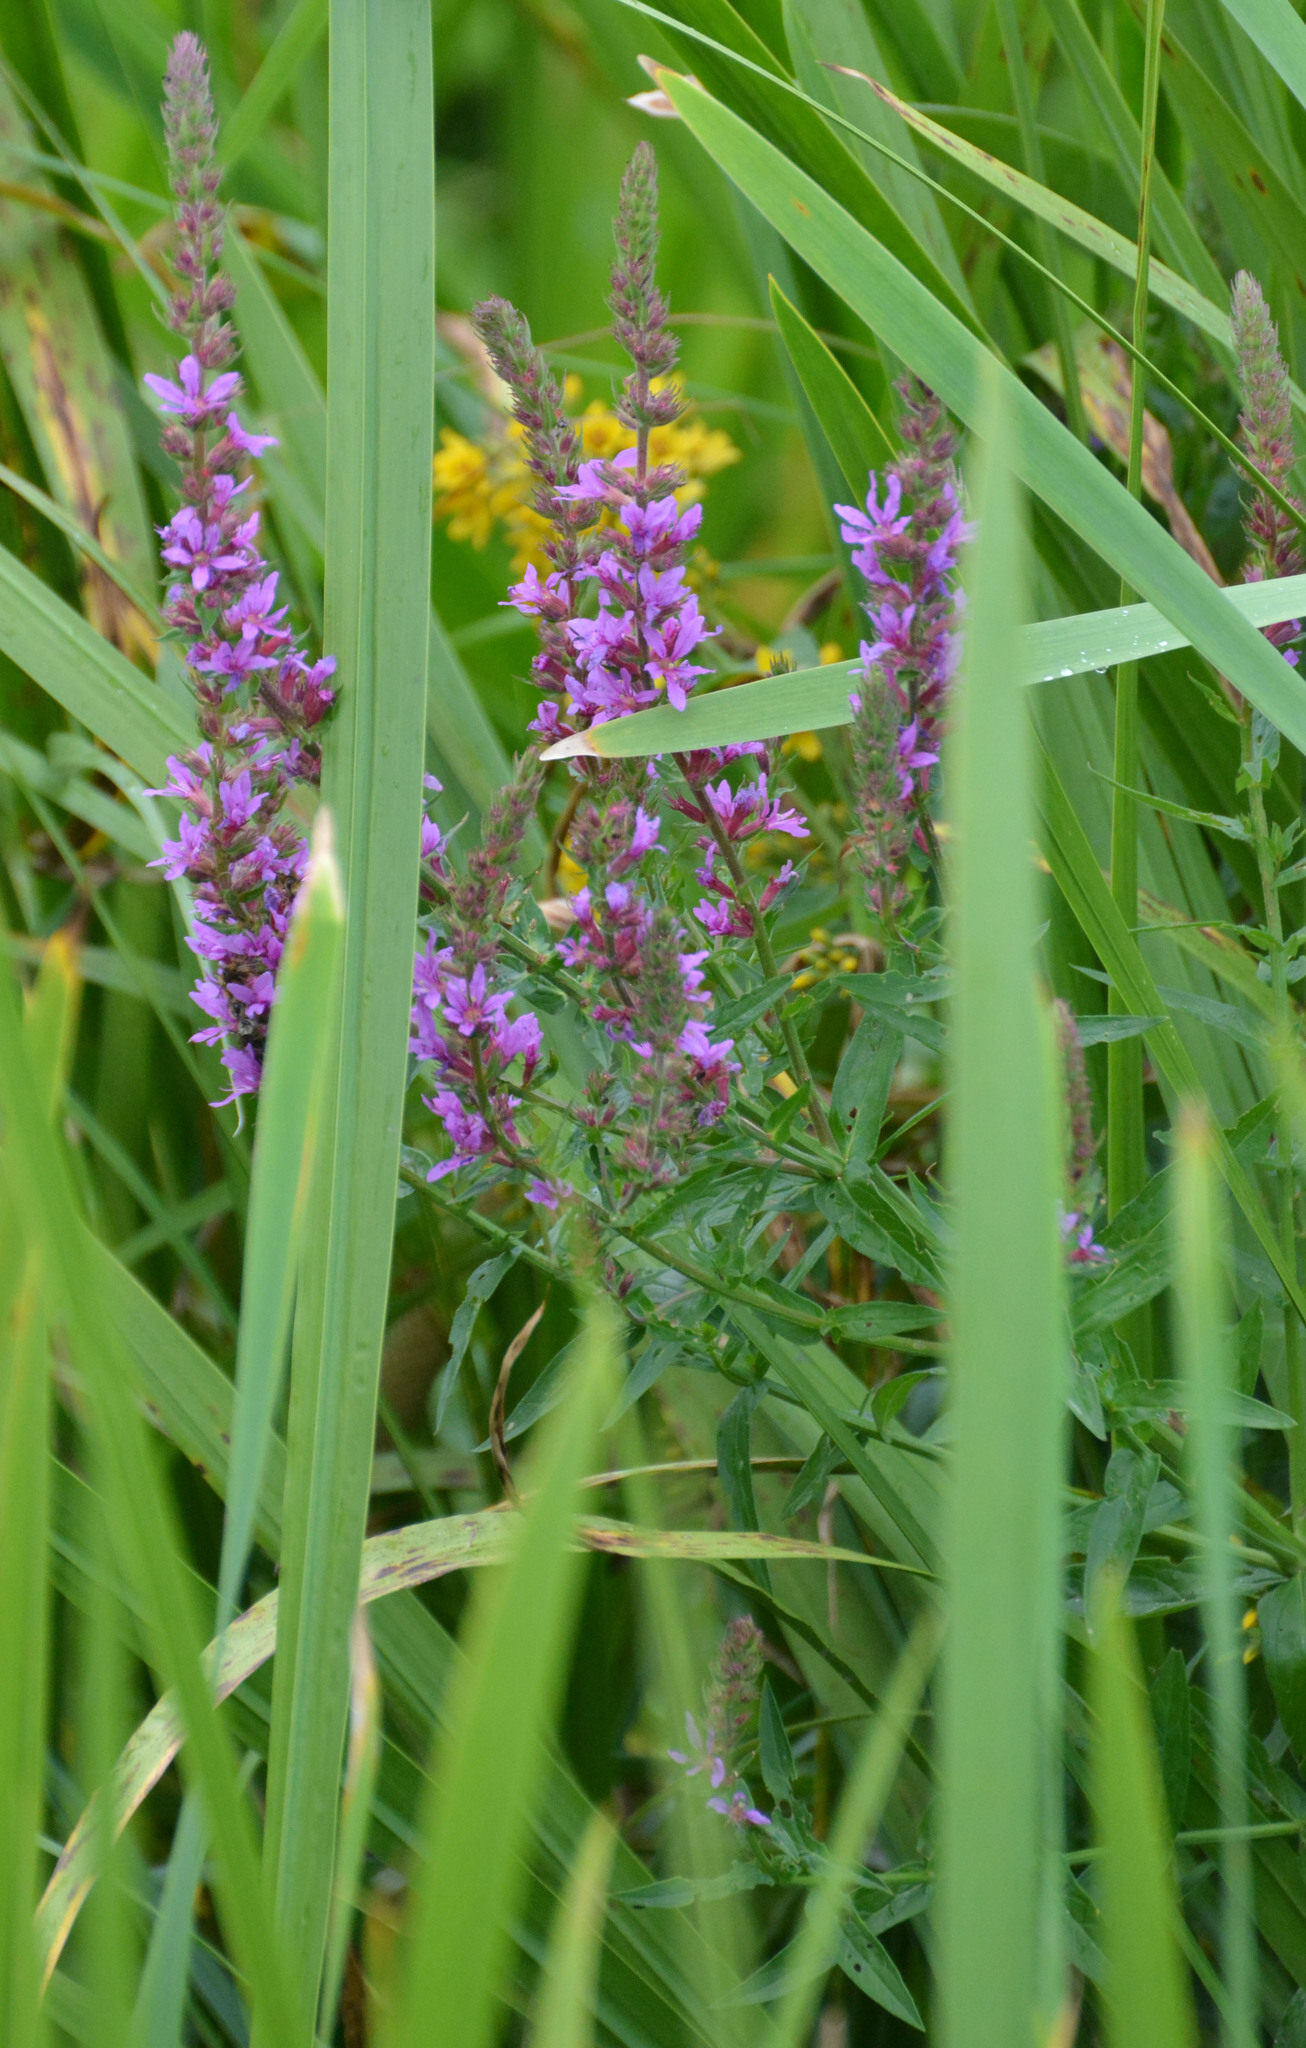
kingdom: Plantae
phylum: Tracheophyta
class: Magnoliopsida
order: Myrtales
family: Lythraceae
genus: Lythrum
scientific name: Lythrum salicaria
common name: Purple loosestrife
